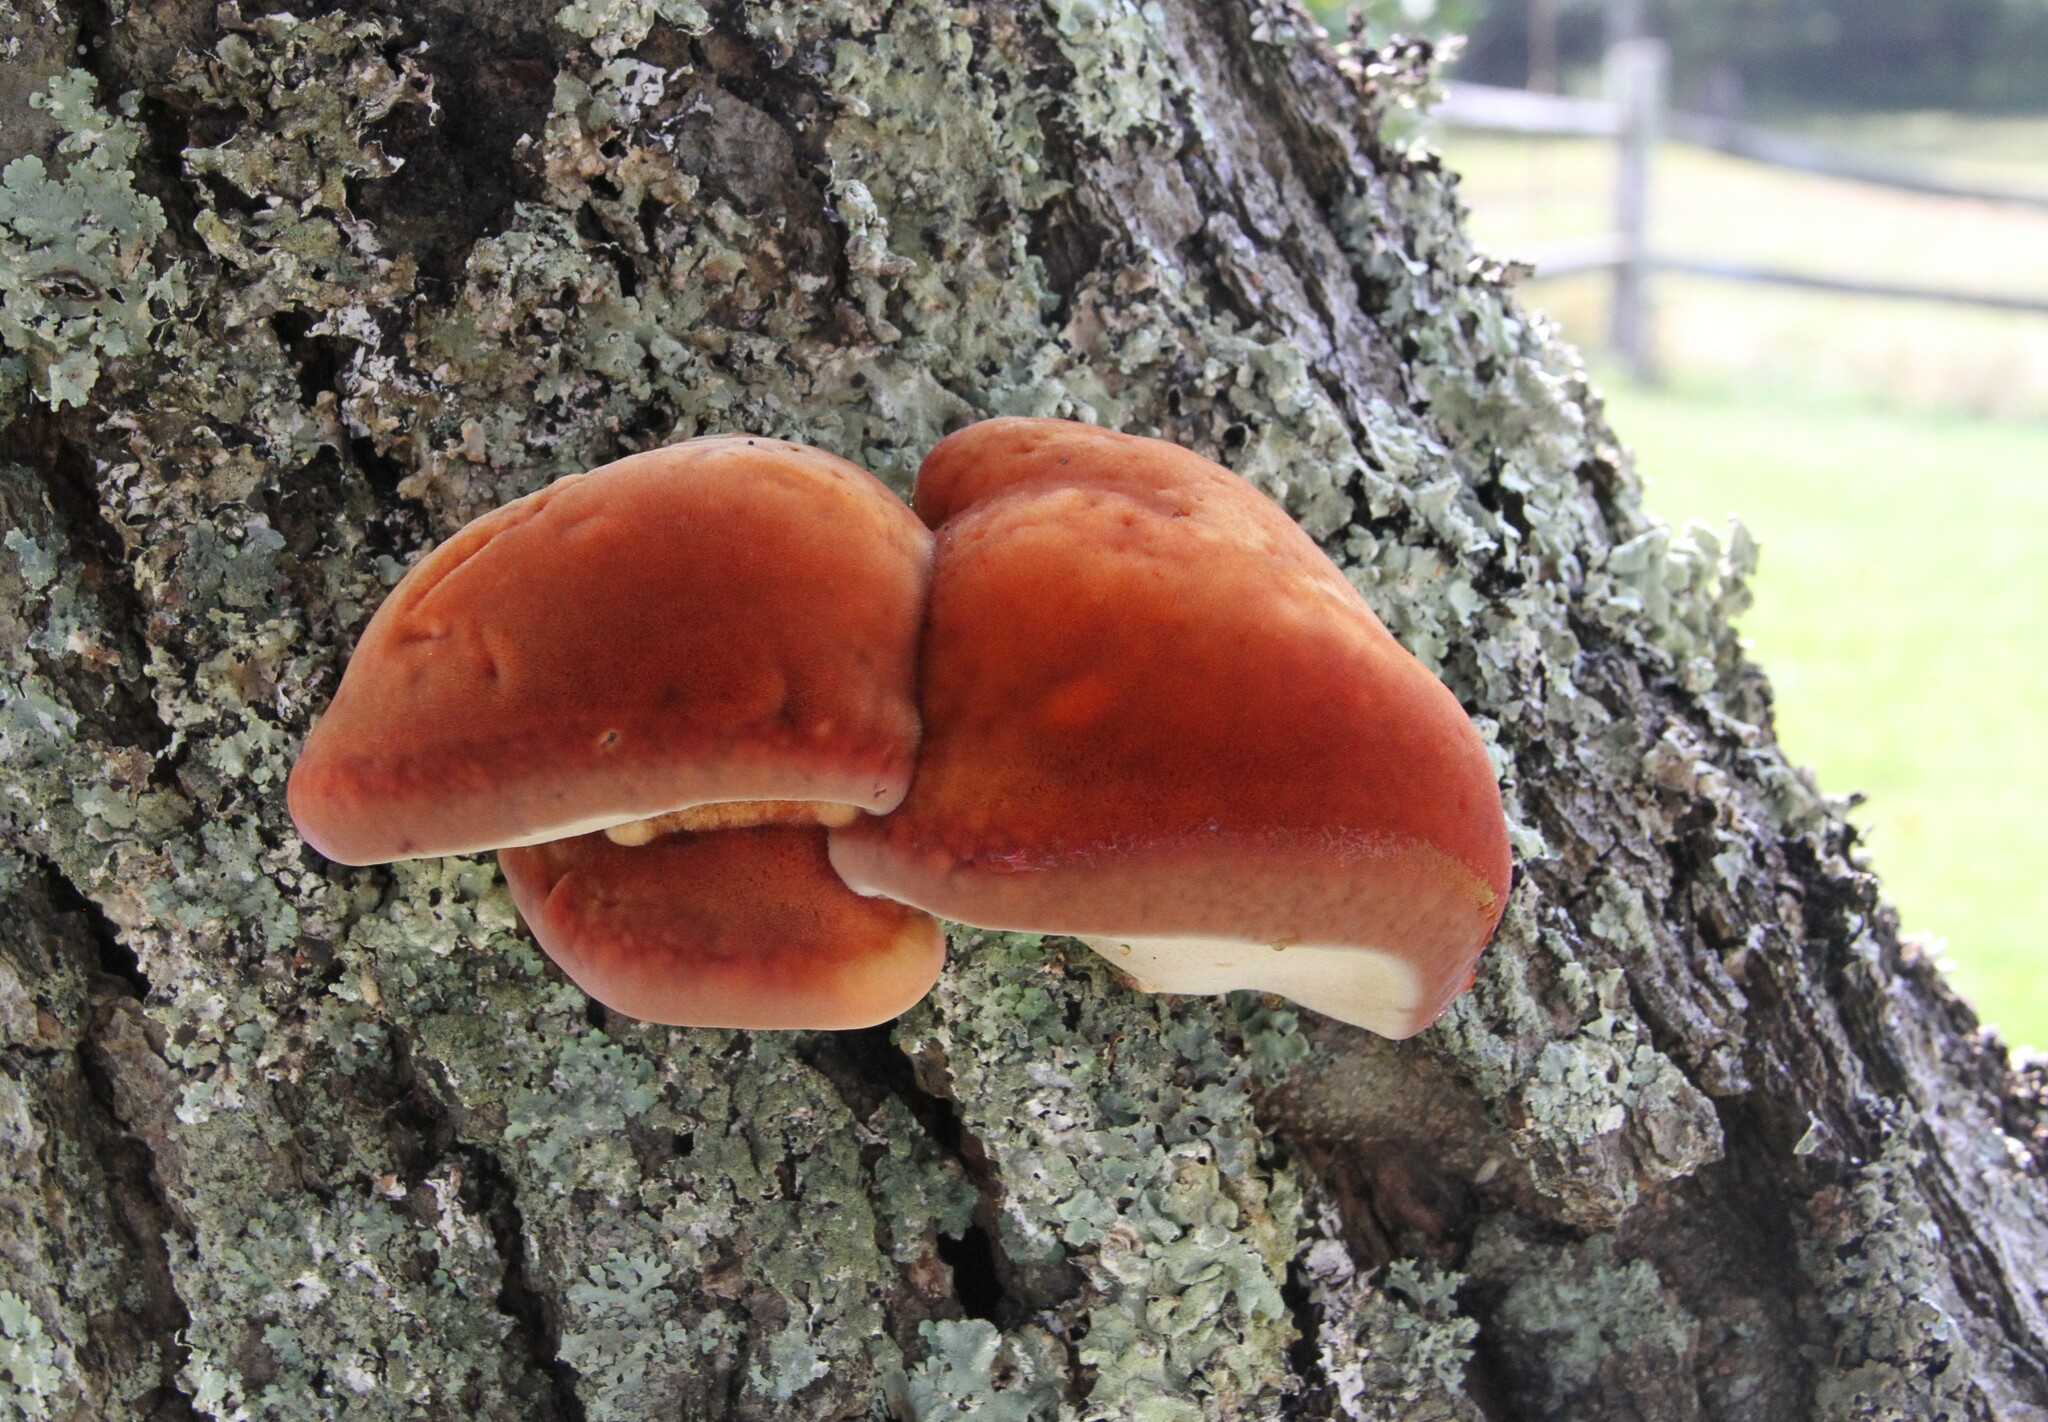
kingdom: Fungi
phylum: Basidiomycota
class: Agaricomycetes
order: Hymenochaetales
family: Hymenochaetaceae
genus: Inonotus
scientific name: Inonotus hispidus
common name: Shaggy bracket
